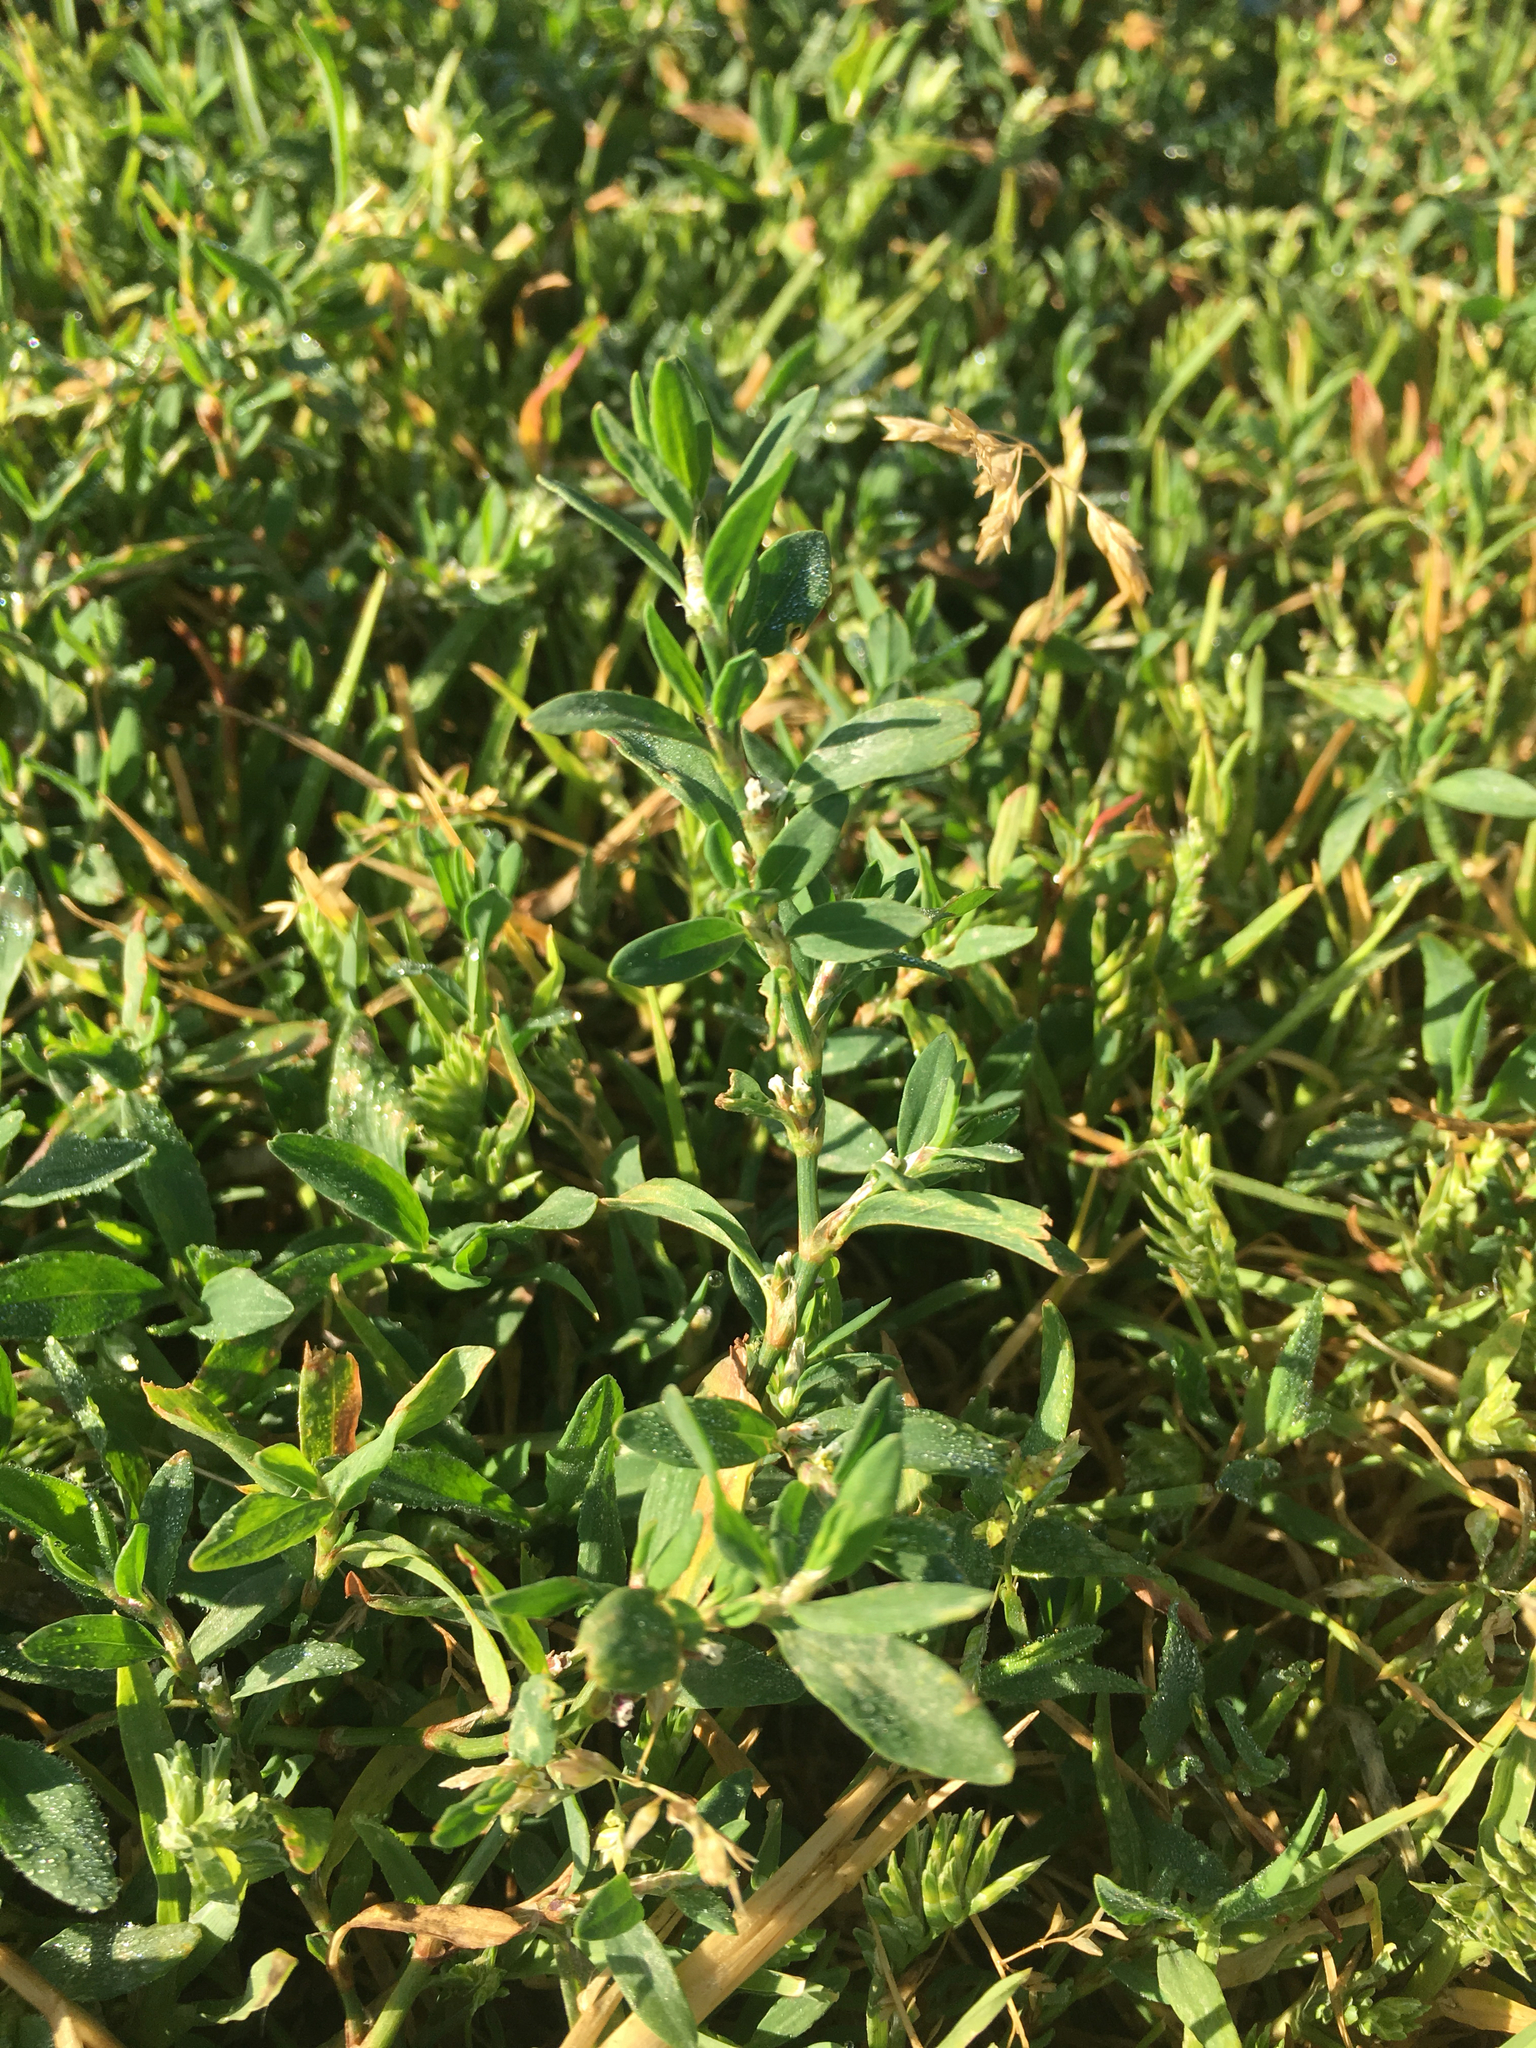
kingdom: Plantae
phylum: Tracheophyta
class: Magnoliopsida
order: Caryophyllales
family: Polygonaceae
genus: Polygonum
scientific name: Polygonum aviculare
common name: Prostrate knotweed
